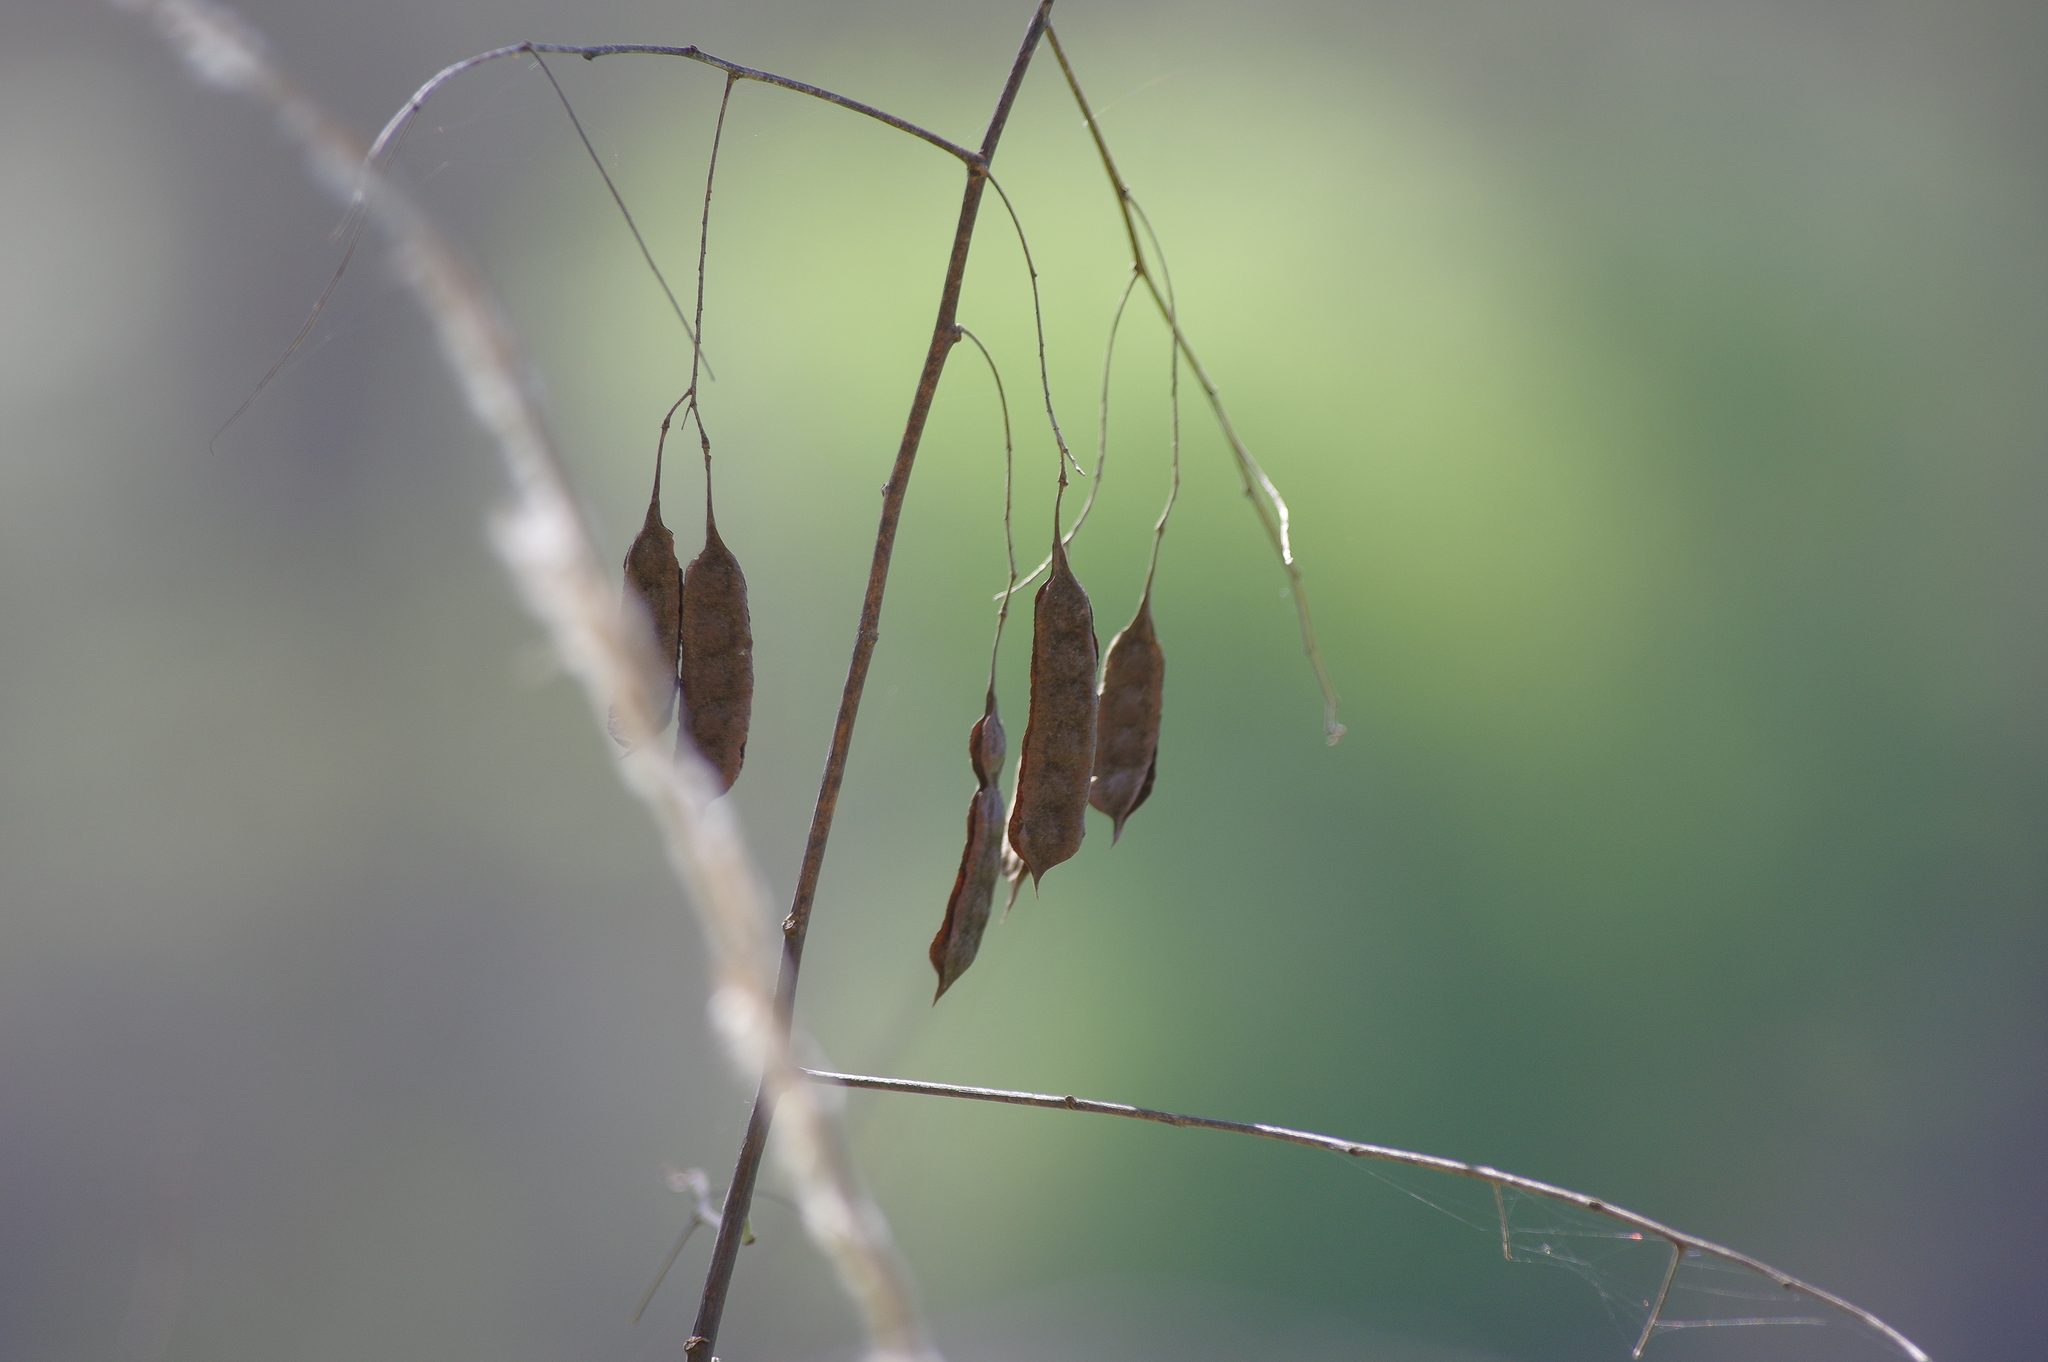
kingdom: Plantae
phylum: Tracheophyta
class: Magnoliopsida
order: Fabales
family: Fabaceae
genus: Sesbania
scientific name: Sesbania drummondii
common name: Poison-bean
